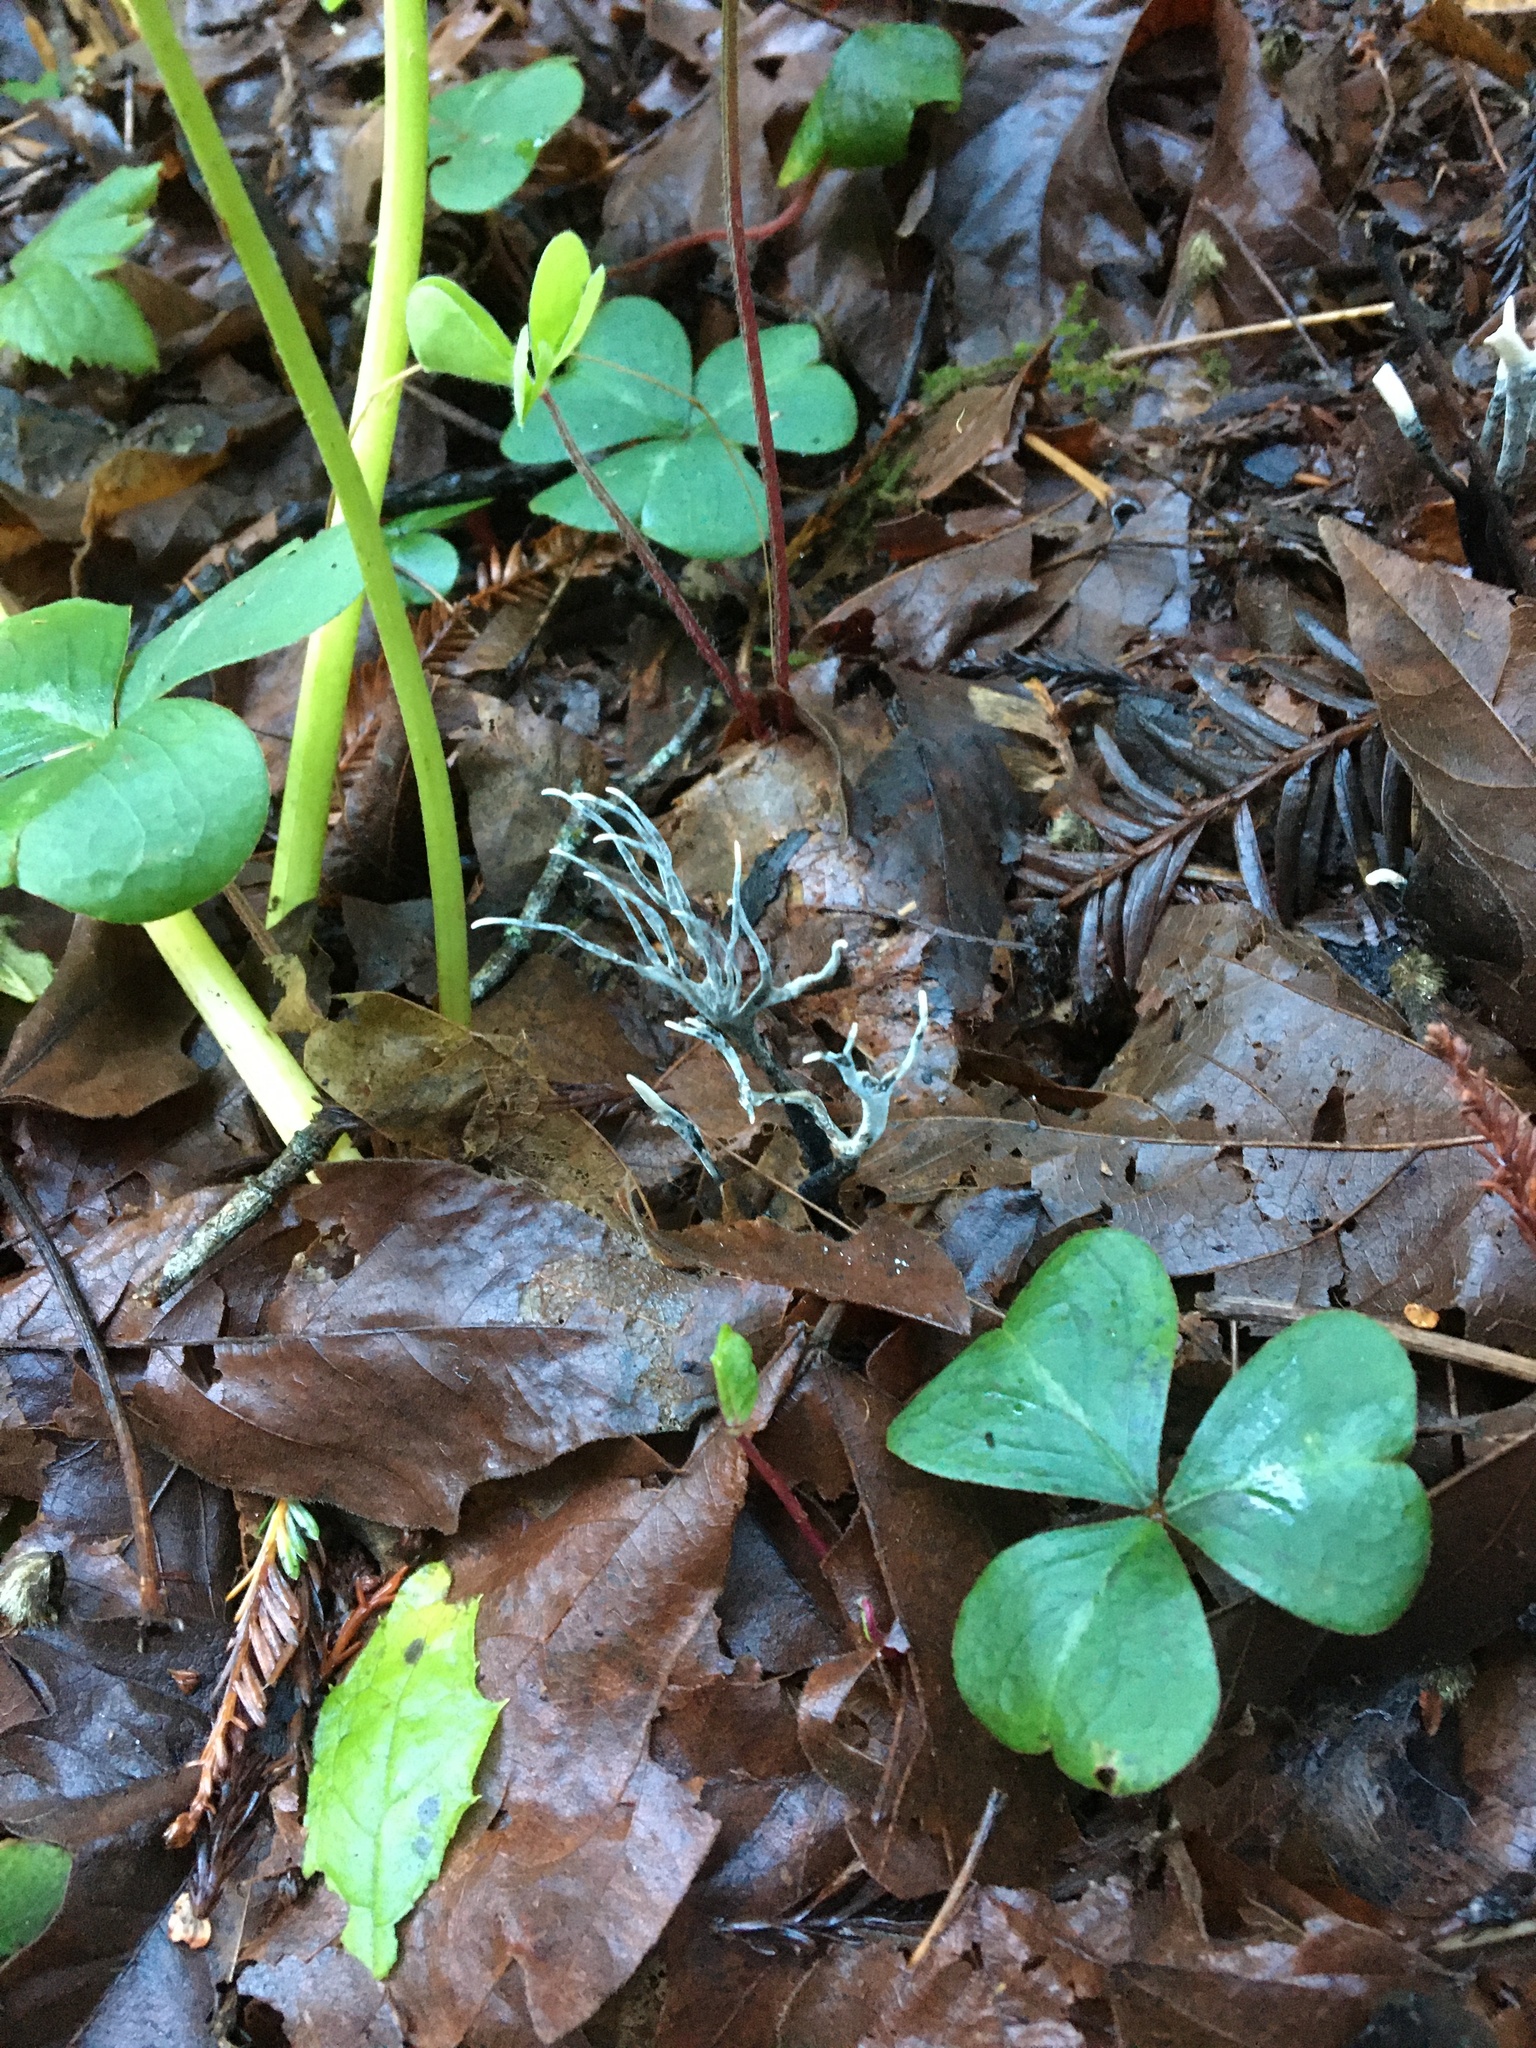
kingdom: Fungi
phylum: Ascomycota
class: Sordariomycetes
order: Xylariales
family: Xylariaceae
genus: Xylaria
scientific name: Xylaria hypoxylon
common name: Candle-snuff fungus
